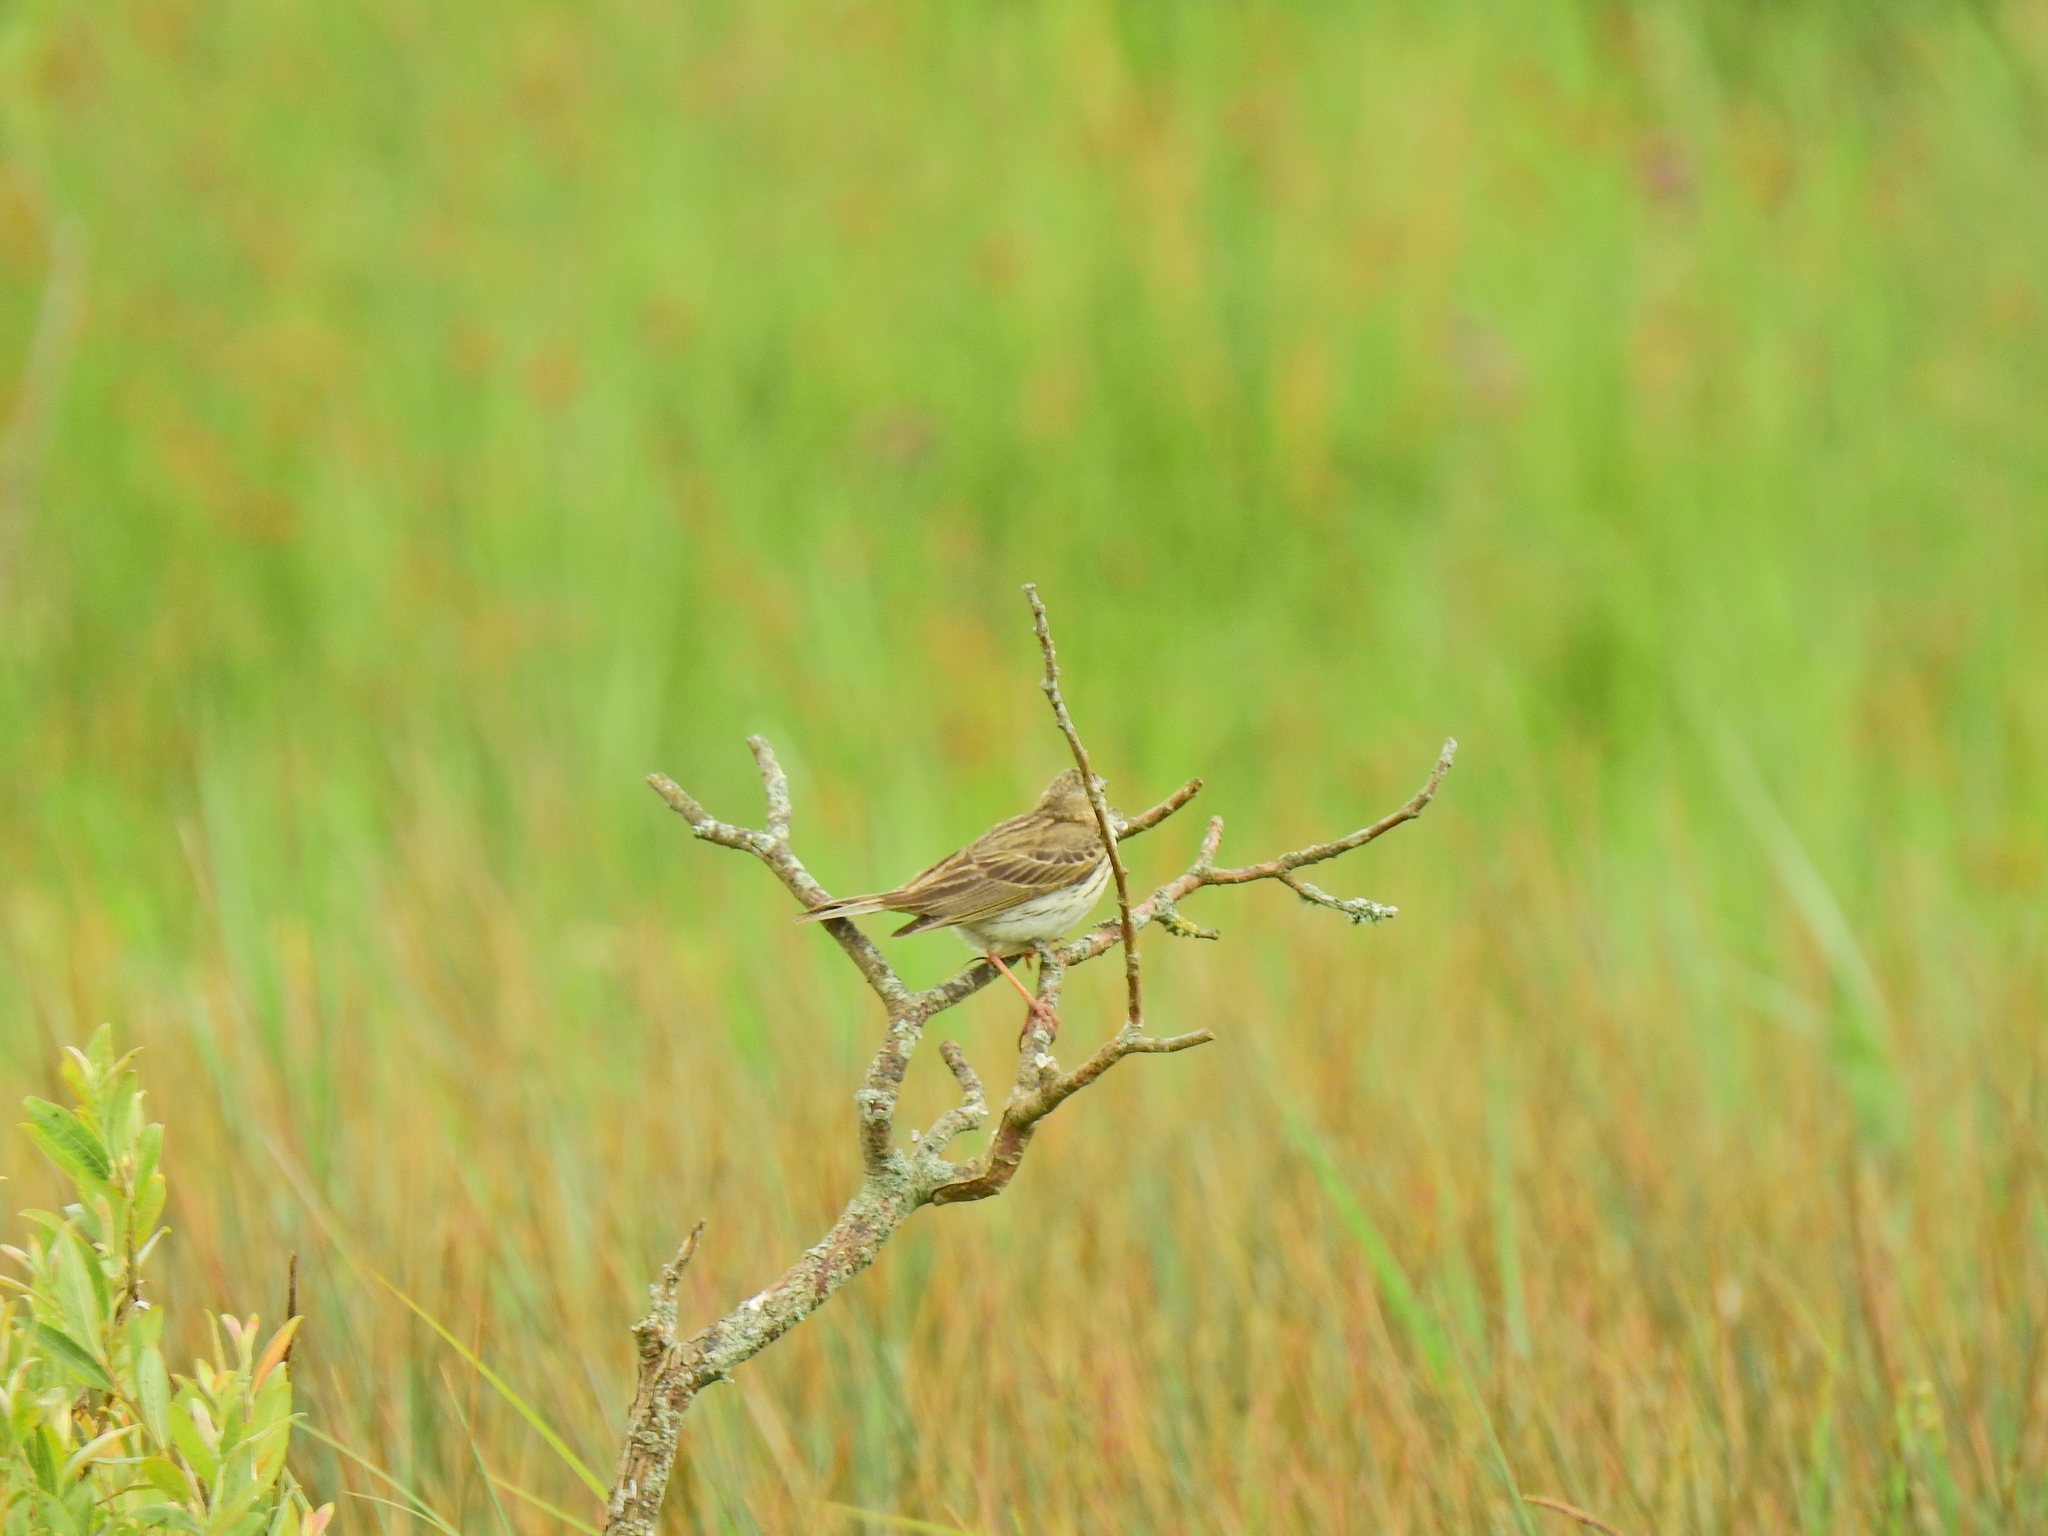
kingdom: Animalia
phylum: Chordata
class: Aves
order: Passeriformes
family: Motacillidae
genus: Anthus
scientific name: Anthus pratensis
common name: Meadow pipit
